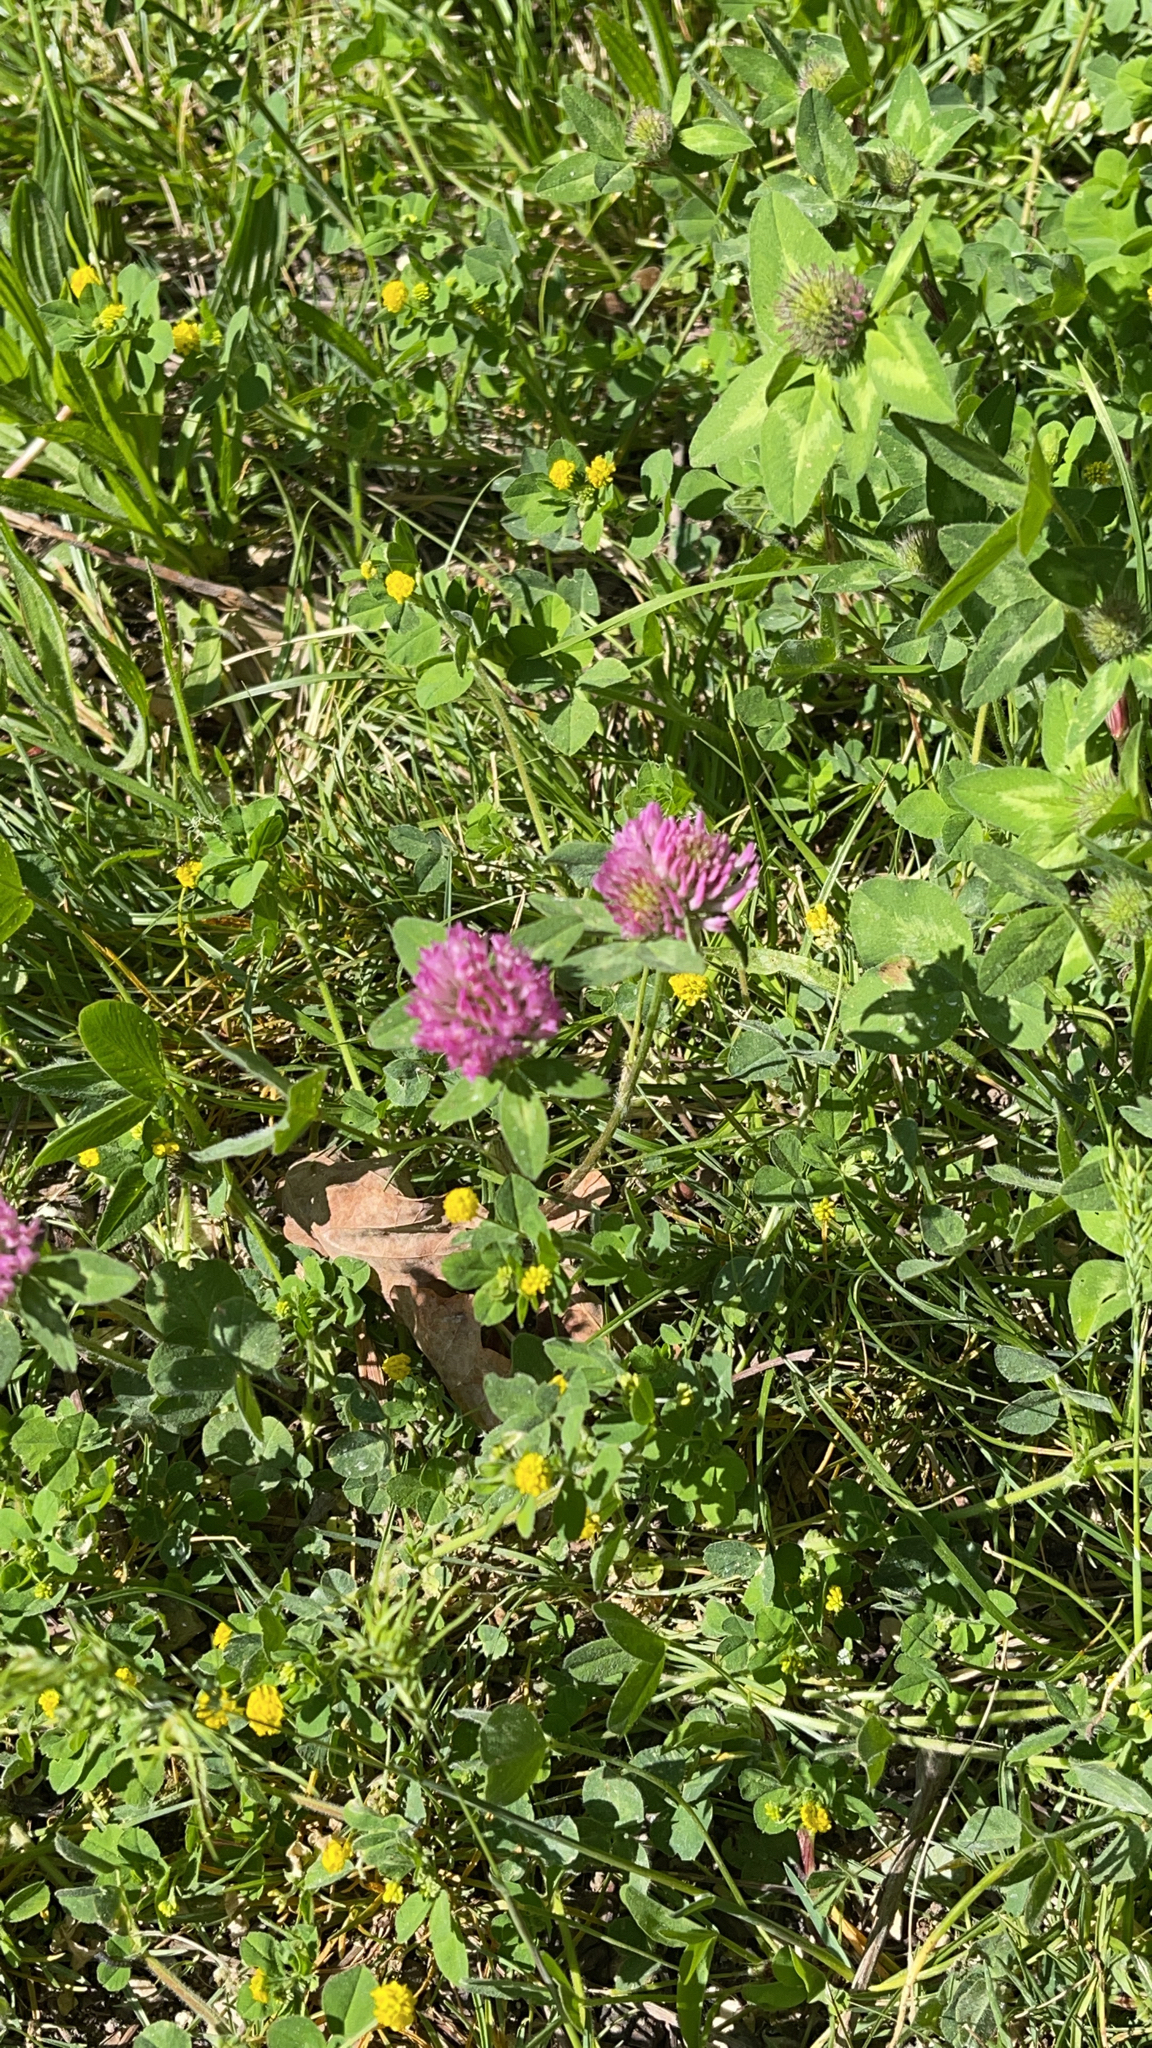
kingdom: Plantae
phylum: Tracheophyta
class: Magnoliopsida
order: Fabales
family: Fabaceae
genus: Trifolium
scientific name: Trifolium pratense
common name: Red clover
